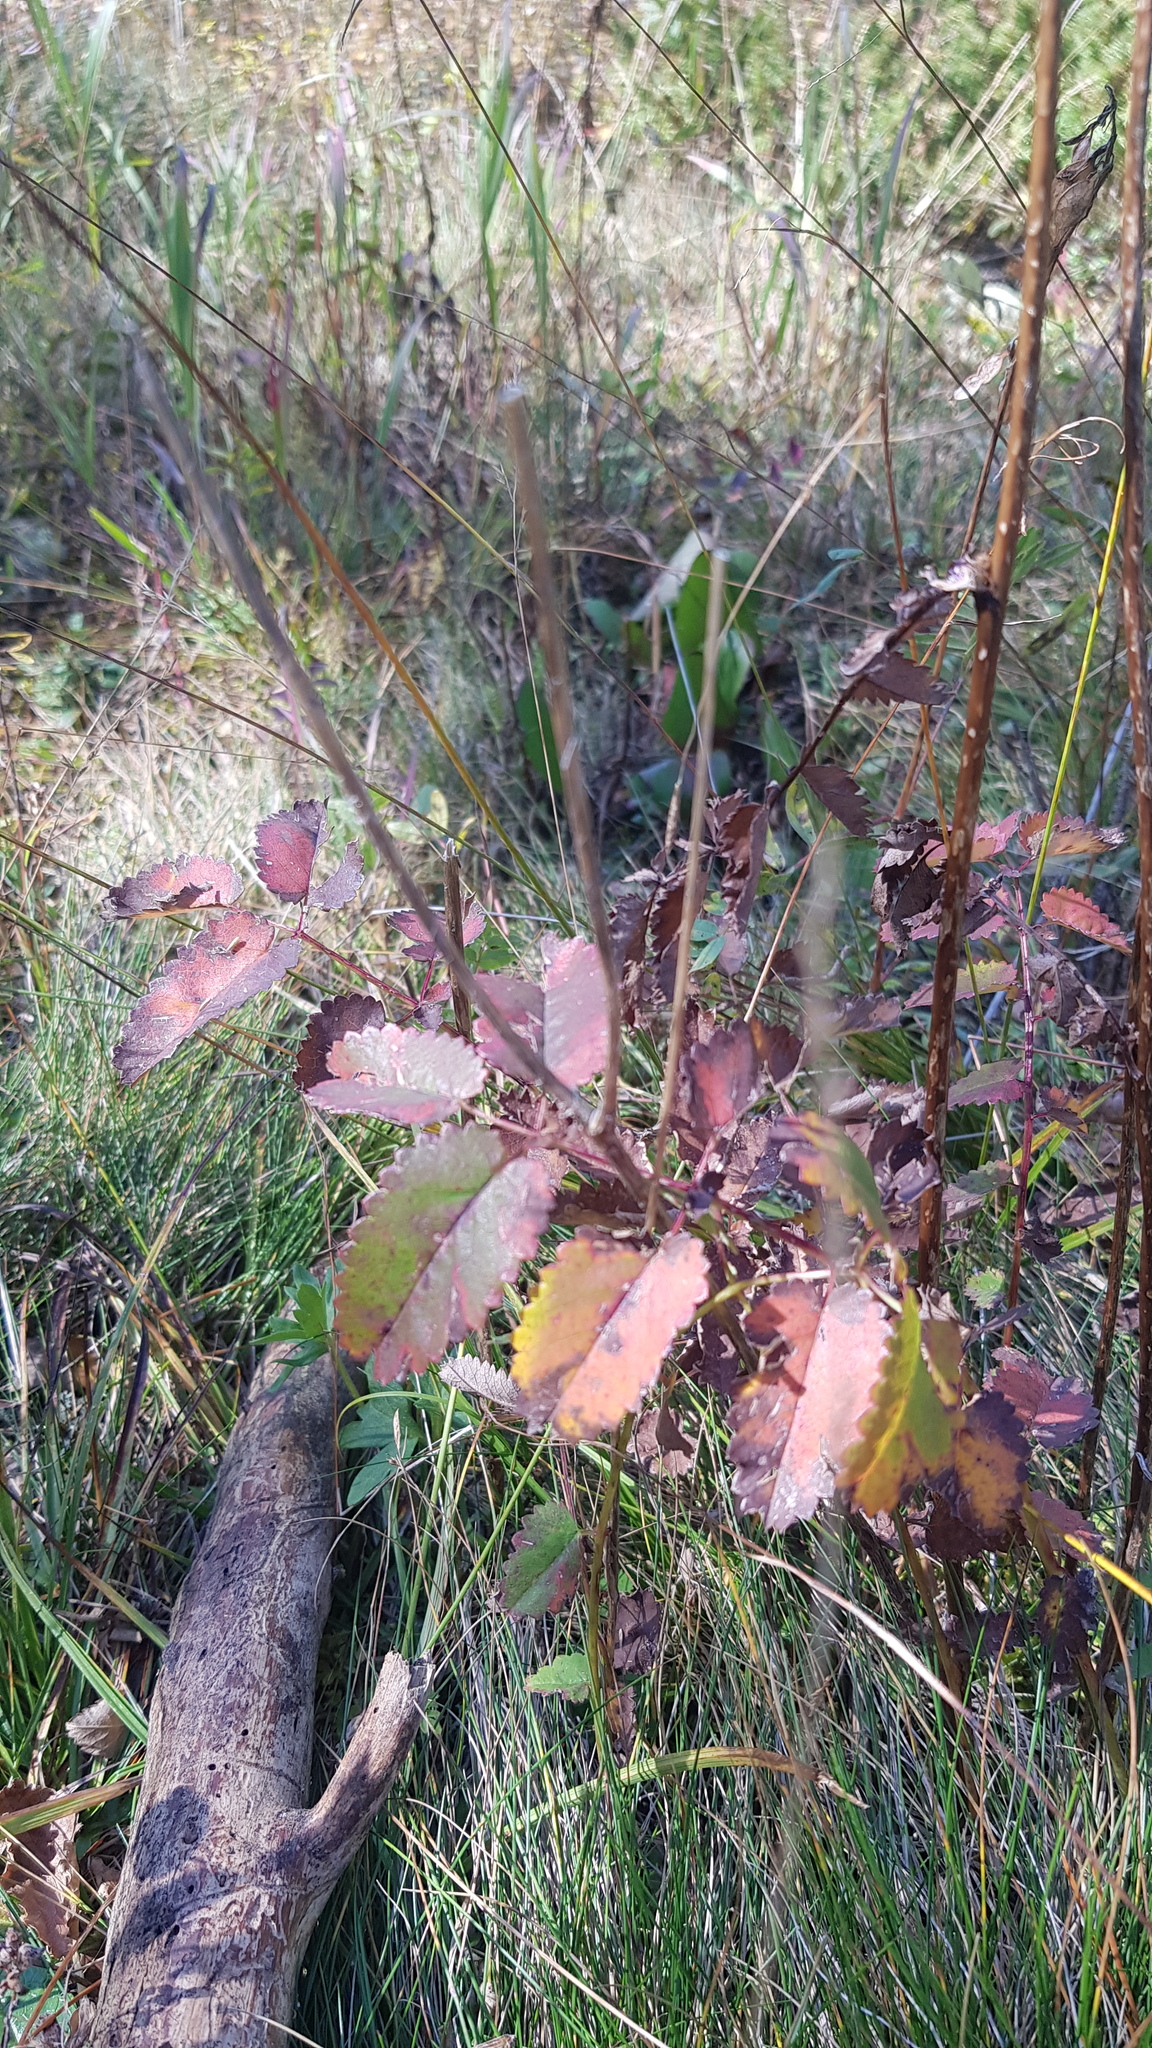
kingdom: Plantae
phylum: Tracheophyta
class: Magnoliopsida
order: Rosales
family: Rosaceae
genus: Sanguisorba
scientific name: Sanguisorba officinalis
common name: Great burnet
